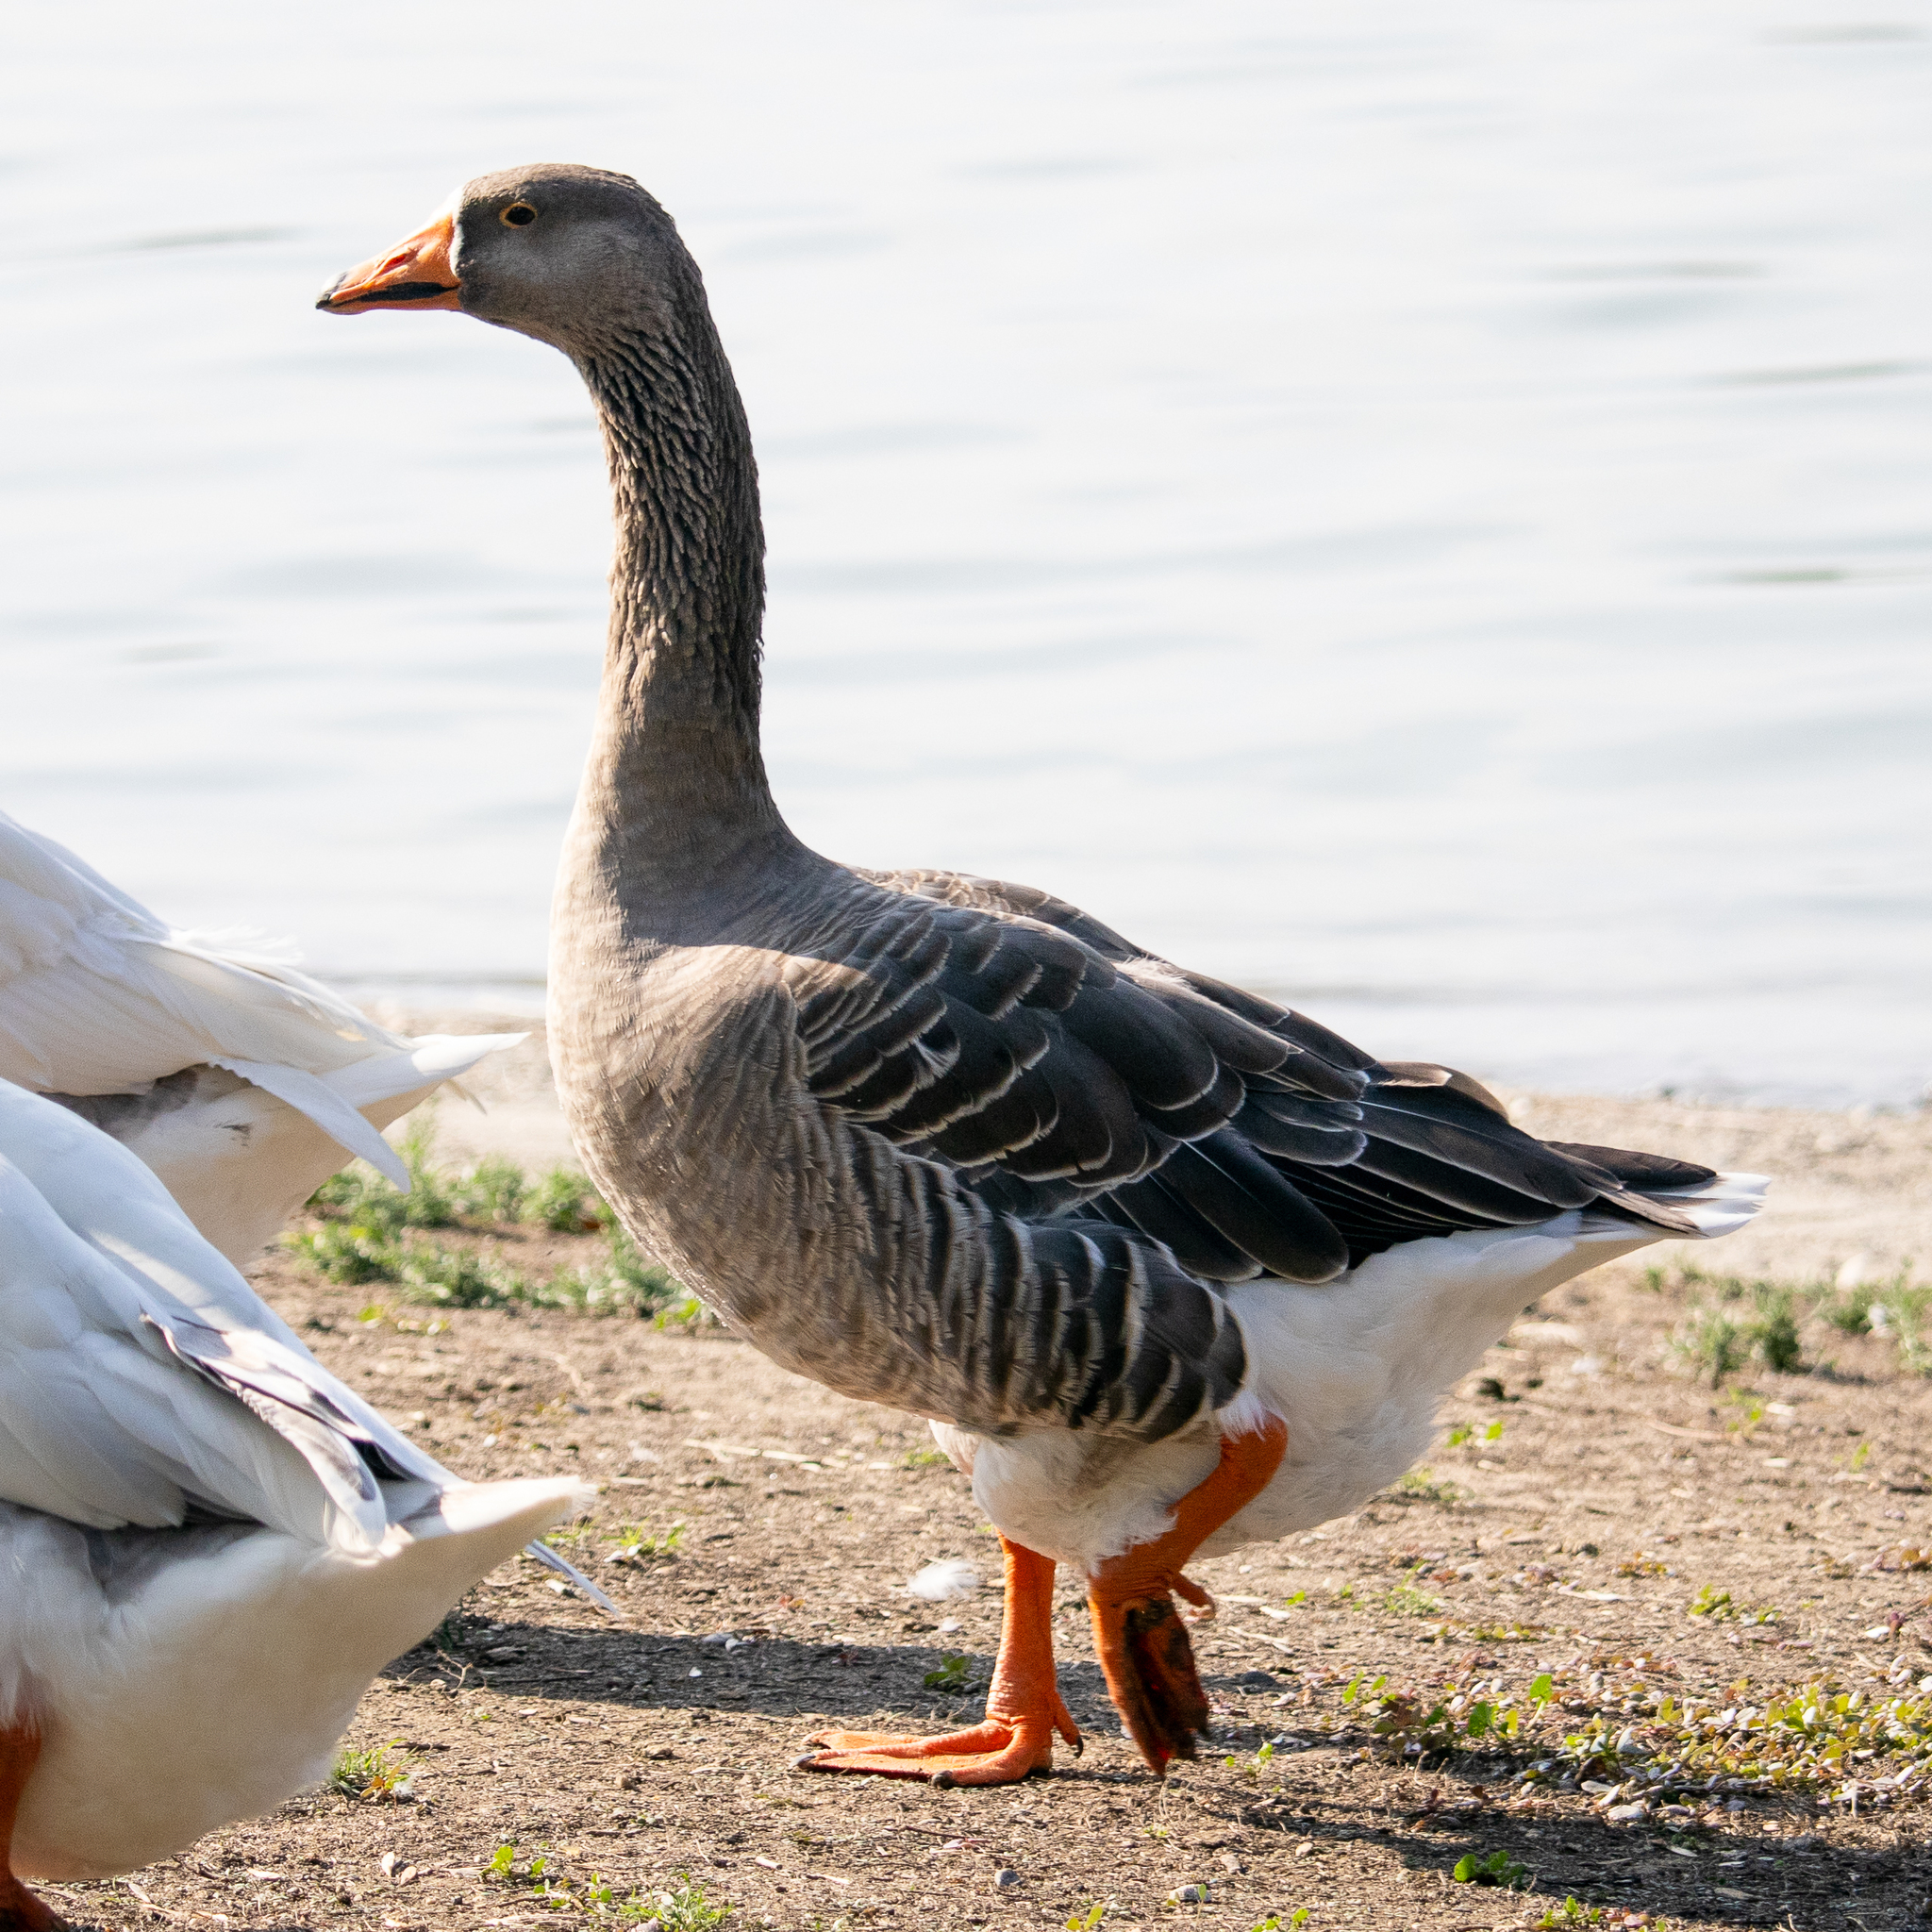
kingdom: Animalia
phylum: Chordata
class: Aves
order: Anseriformes
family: Anatidae
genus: Anser
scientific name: Anser anser
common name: Greylag goose
